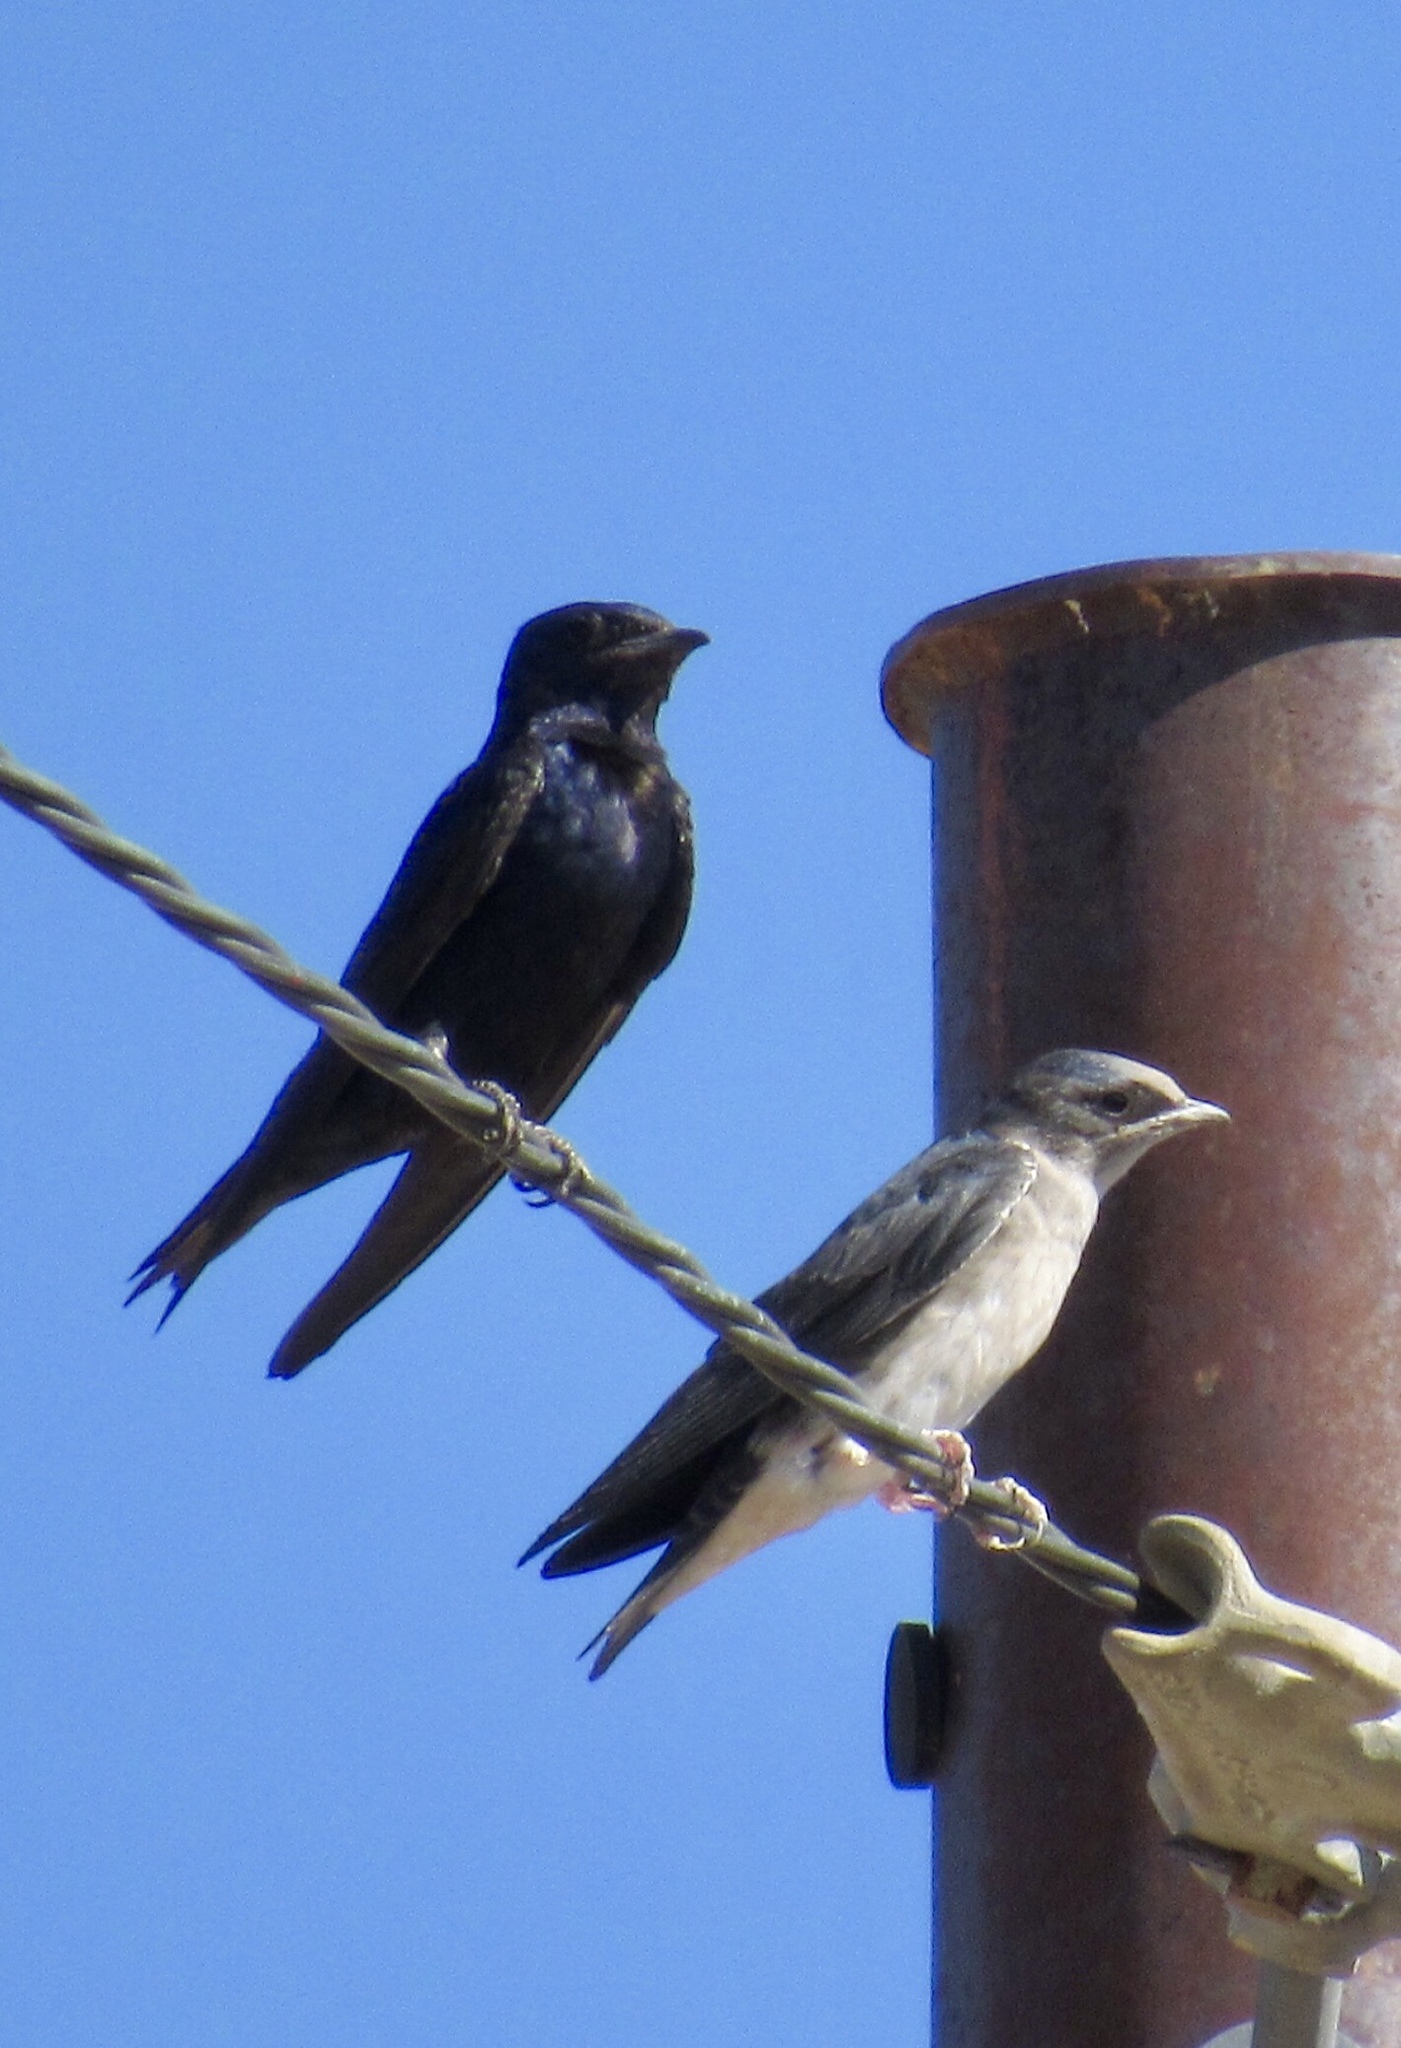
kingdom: Animalia
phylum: Chordata
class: Aves
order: Passeriformes
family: Hirundinidae
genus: Progne
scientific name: Progne subis
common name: Purple martin
